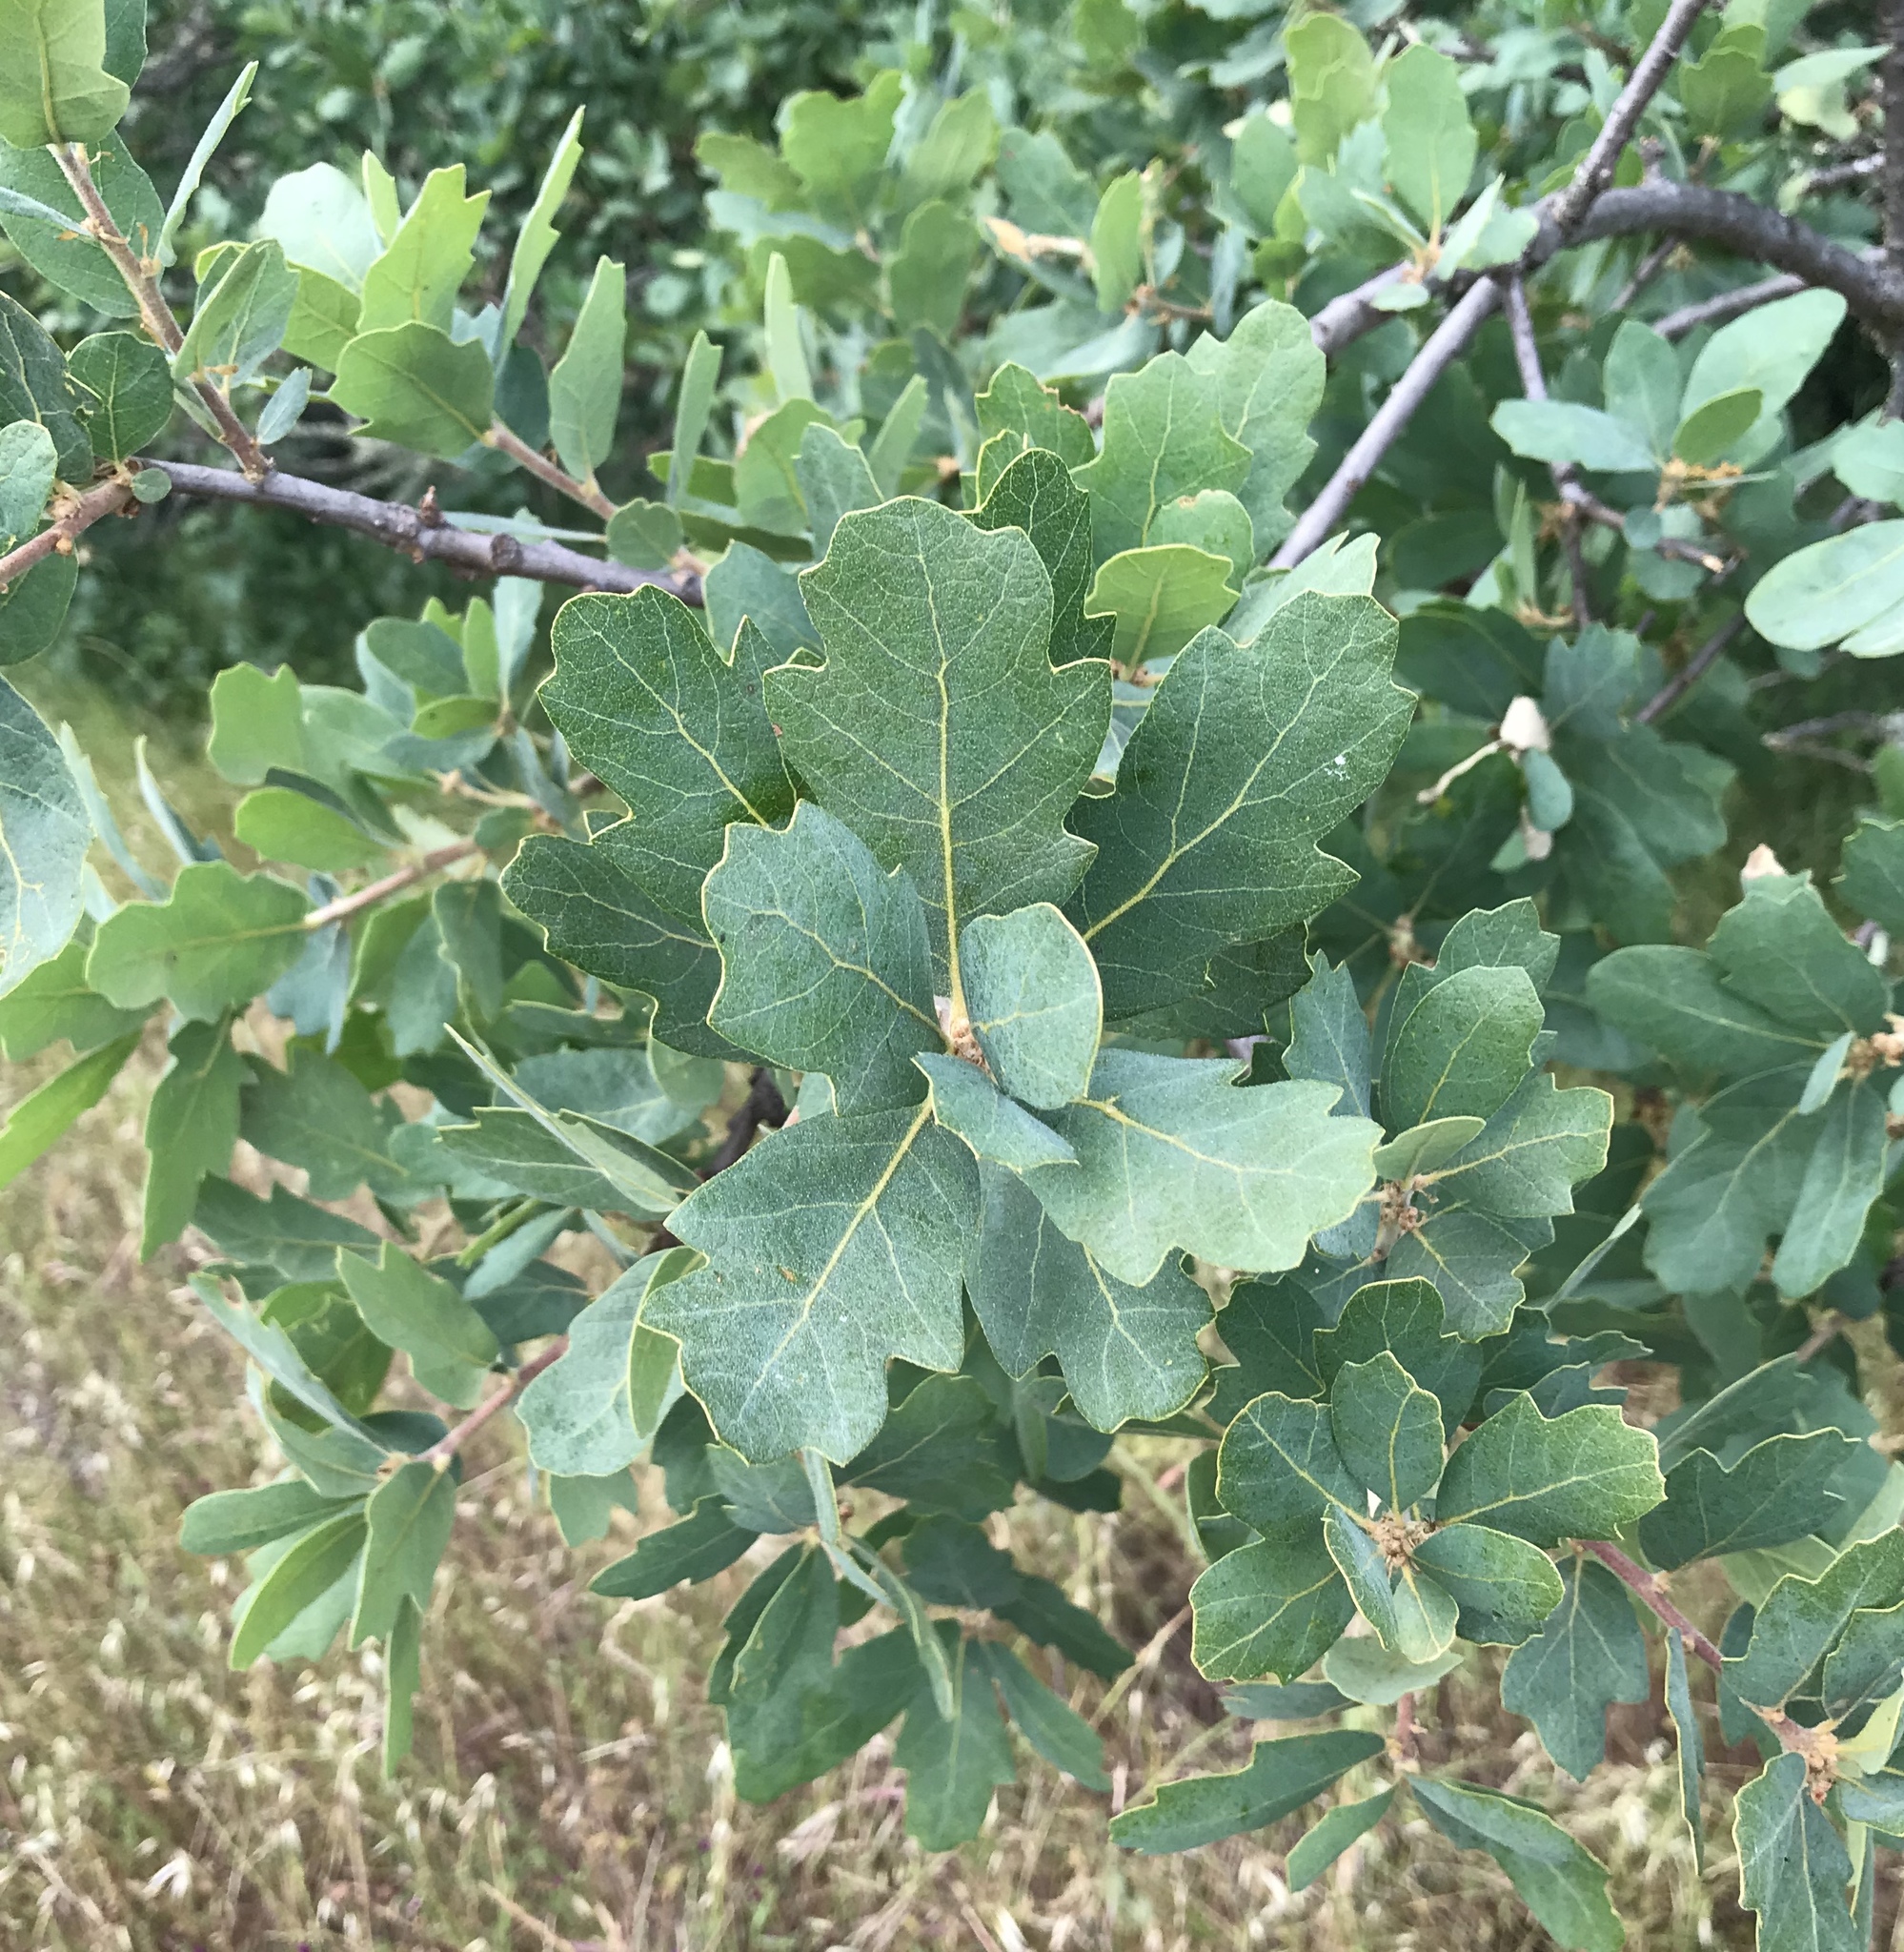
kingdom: Plantae
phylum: Tracheophyta
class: Magnoliopsida
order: Fagales
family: Fagaceae
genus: Quercus
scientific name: Quercus douglasii
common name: Blue oak
